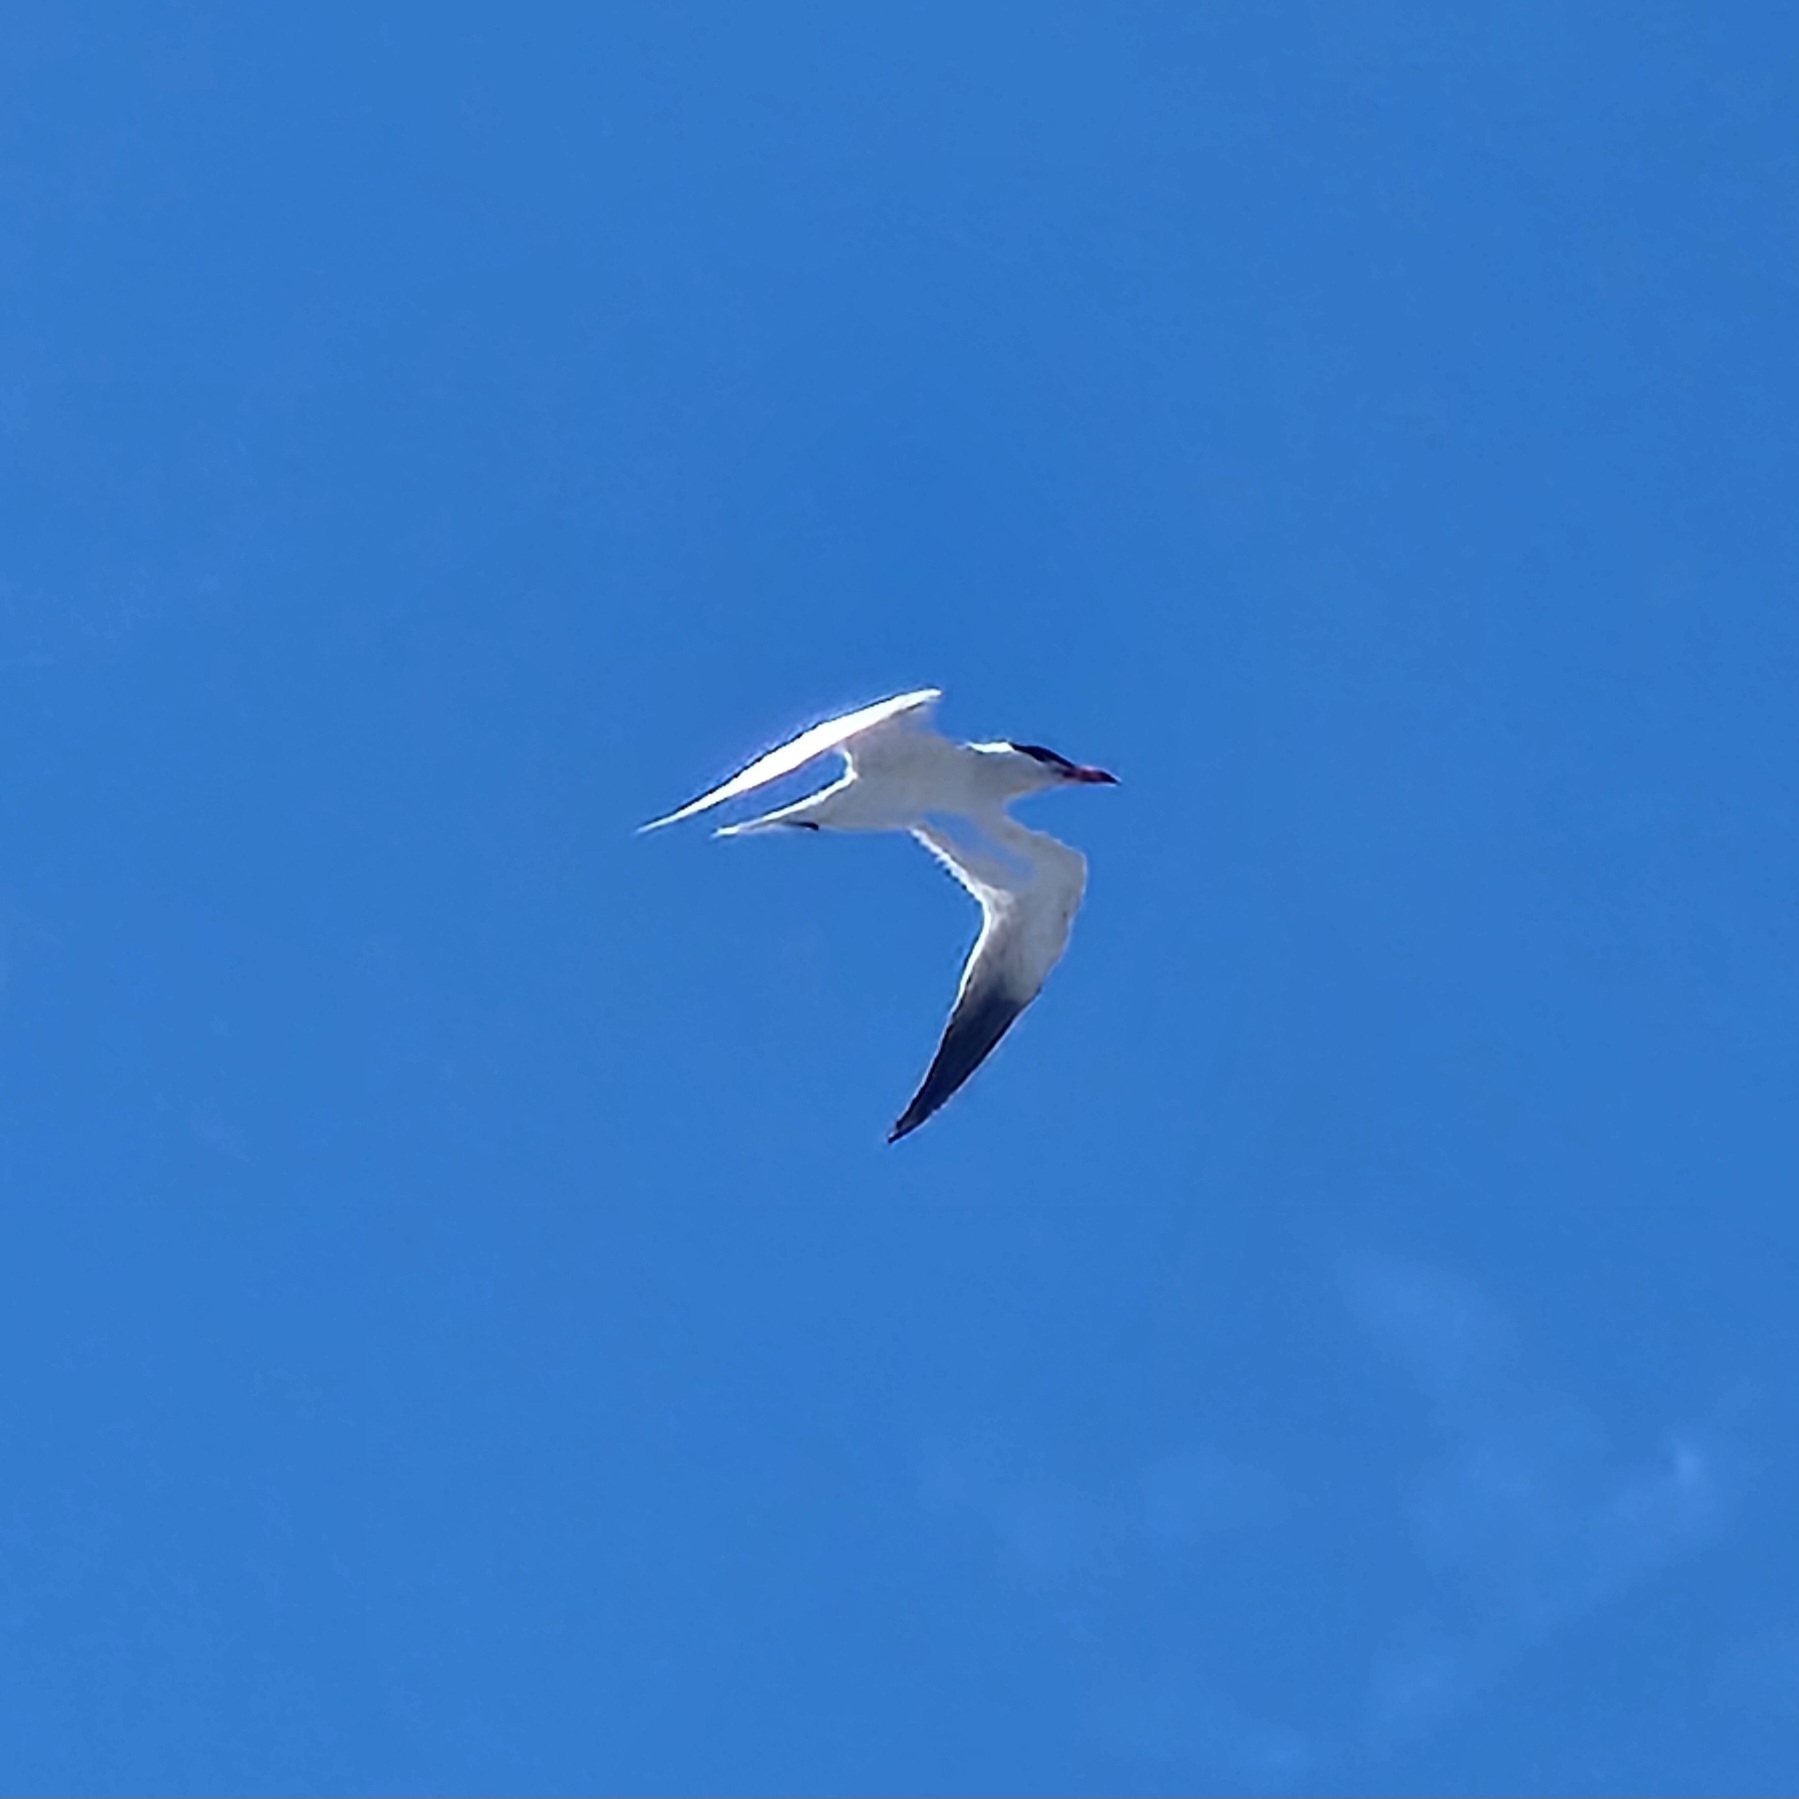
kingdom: Animalia
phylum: Chordata
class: Aves
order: Charadriiformes
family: Laridae
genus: Hydroprogne
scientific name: Hydroprogne caspia
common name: Caspian tern
